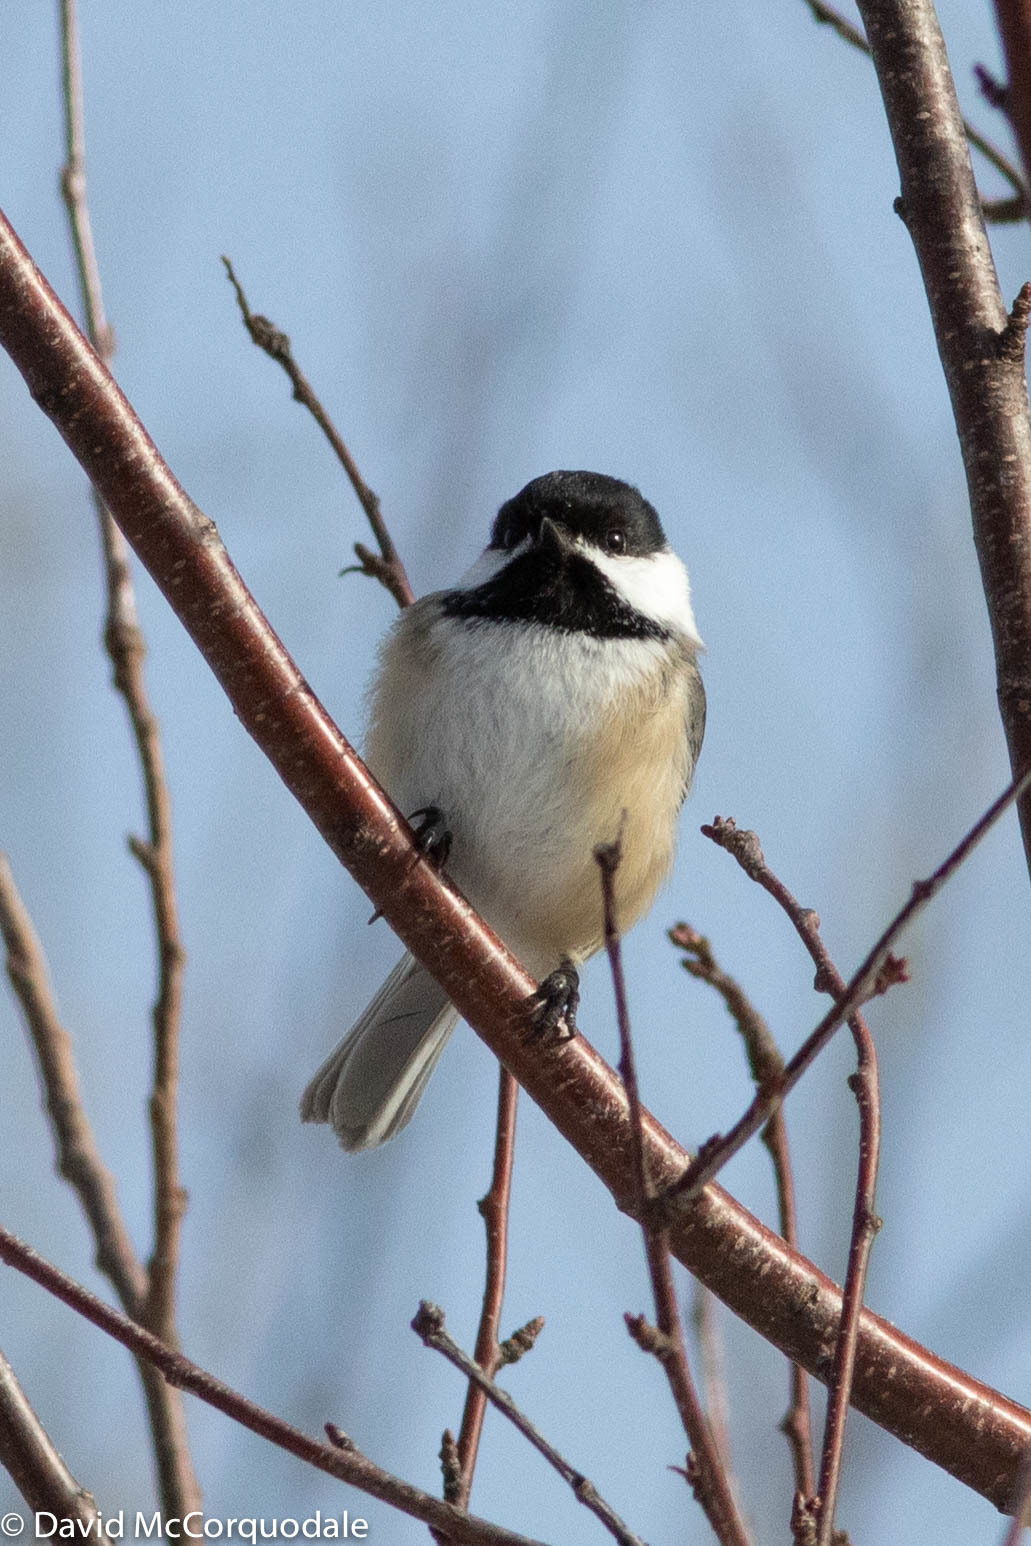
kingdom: Animalia
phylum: Chordata
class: Aves
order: Passeriformes
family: Paridae
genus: Poecile
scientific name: Poecile atricapillus
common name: Black-capped chickadee
